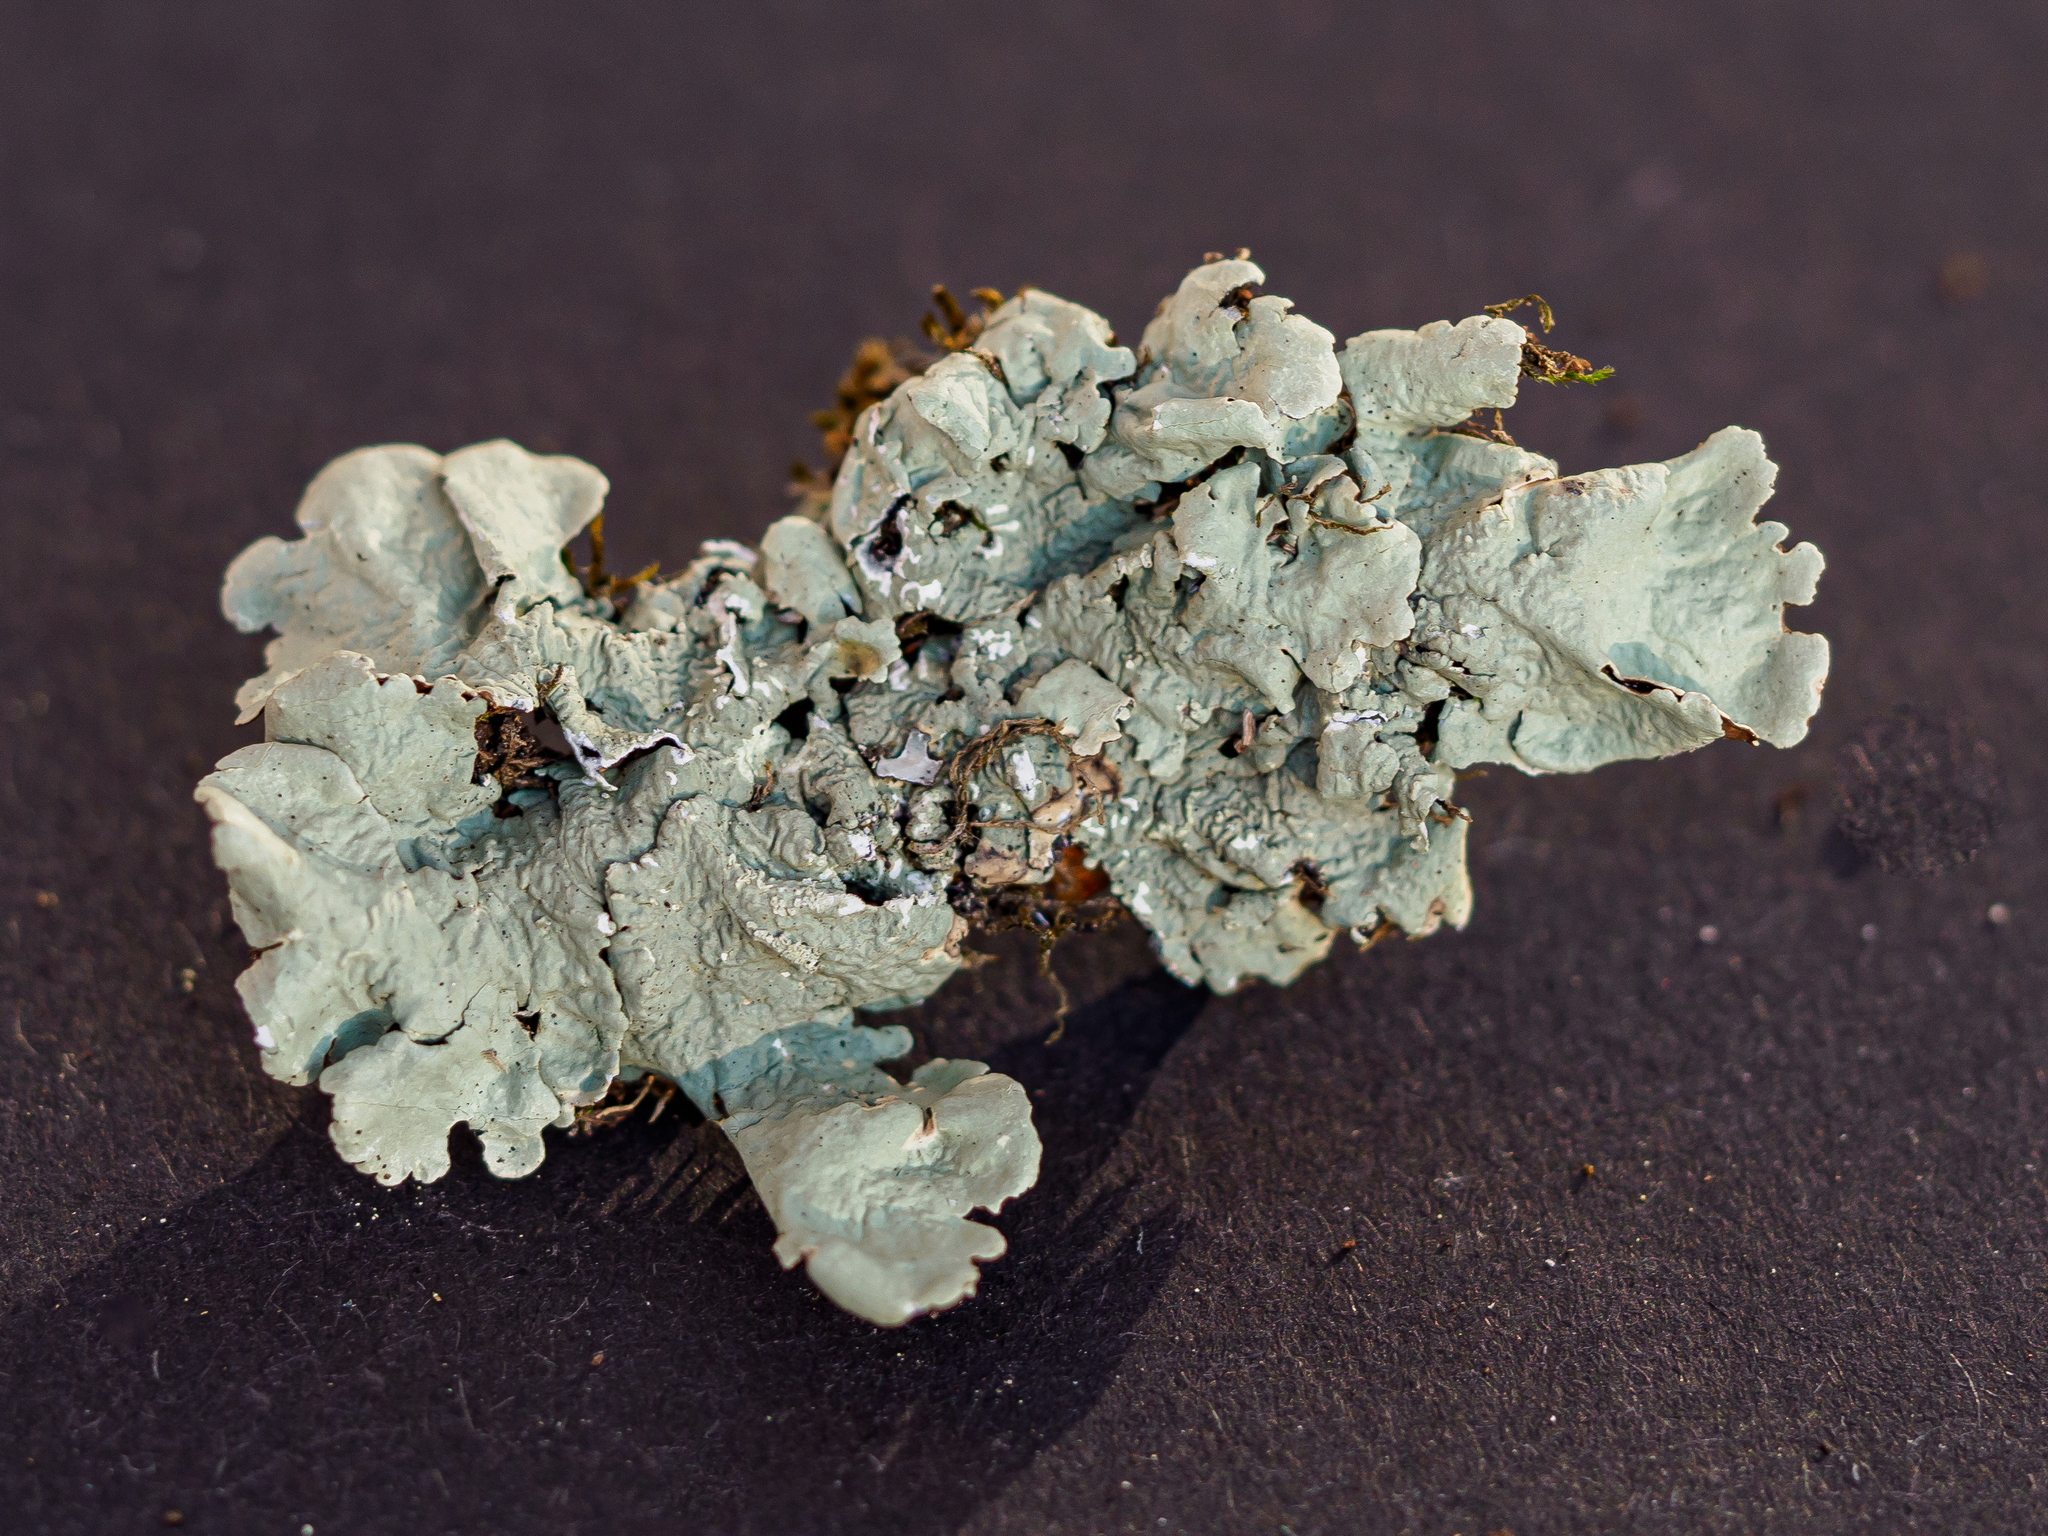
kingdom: Fungi
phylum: Ascomycota
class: Lecanoromycetes
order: Lecanorales
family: Parmeliaceae
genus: Flavoparmelia
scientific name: Flavoparmelia caperata
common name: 40-mile per hour lichen
